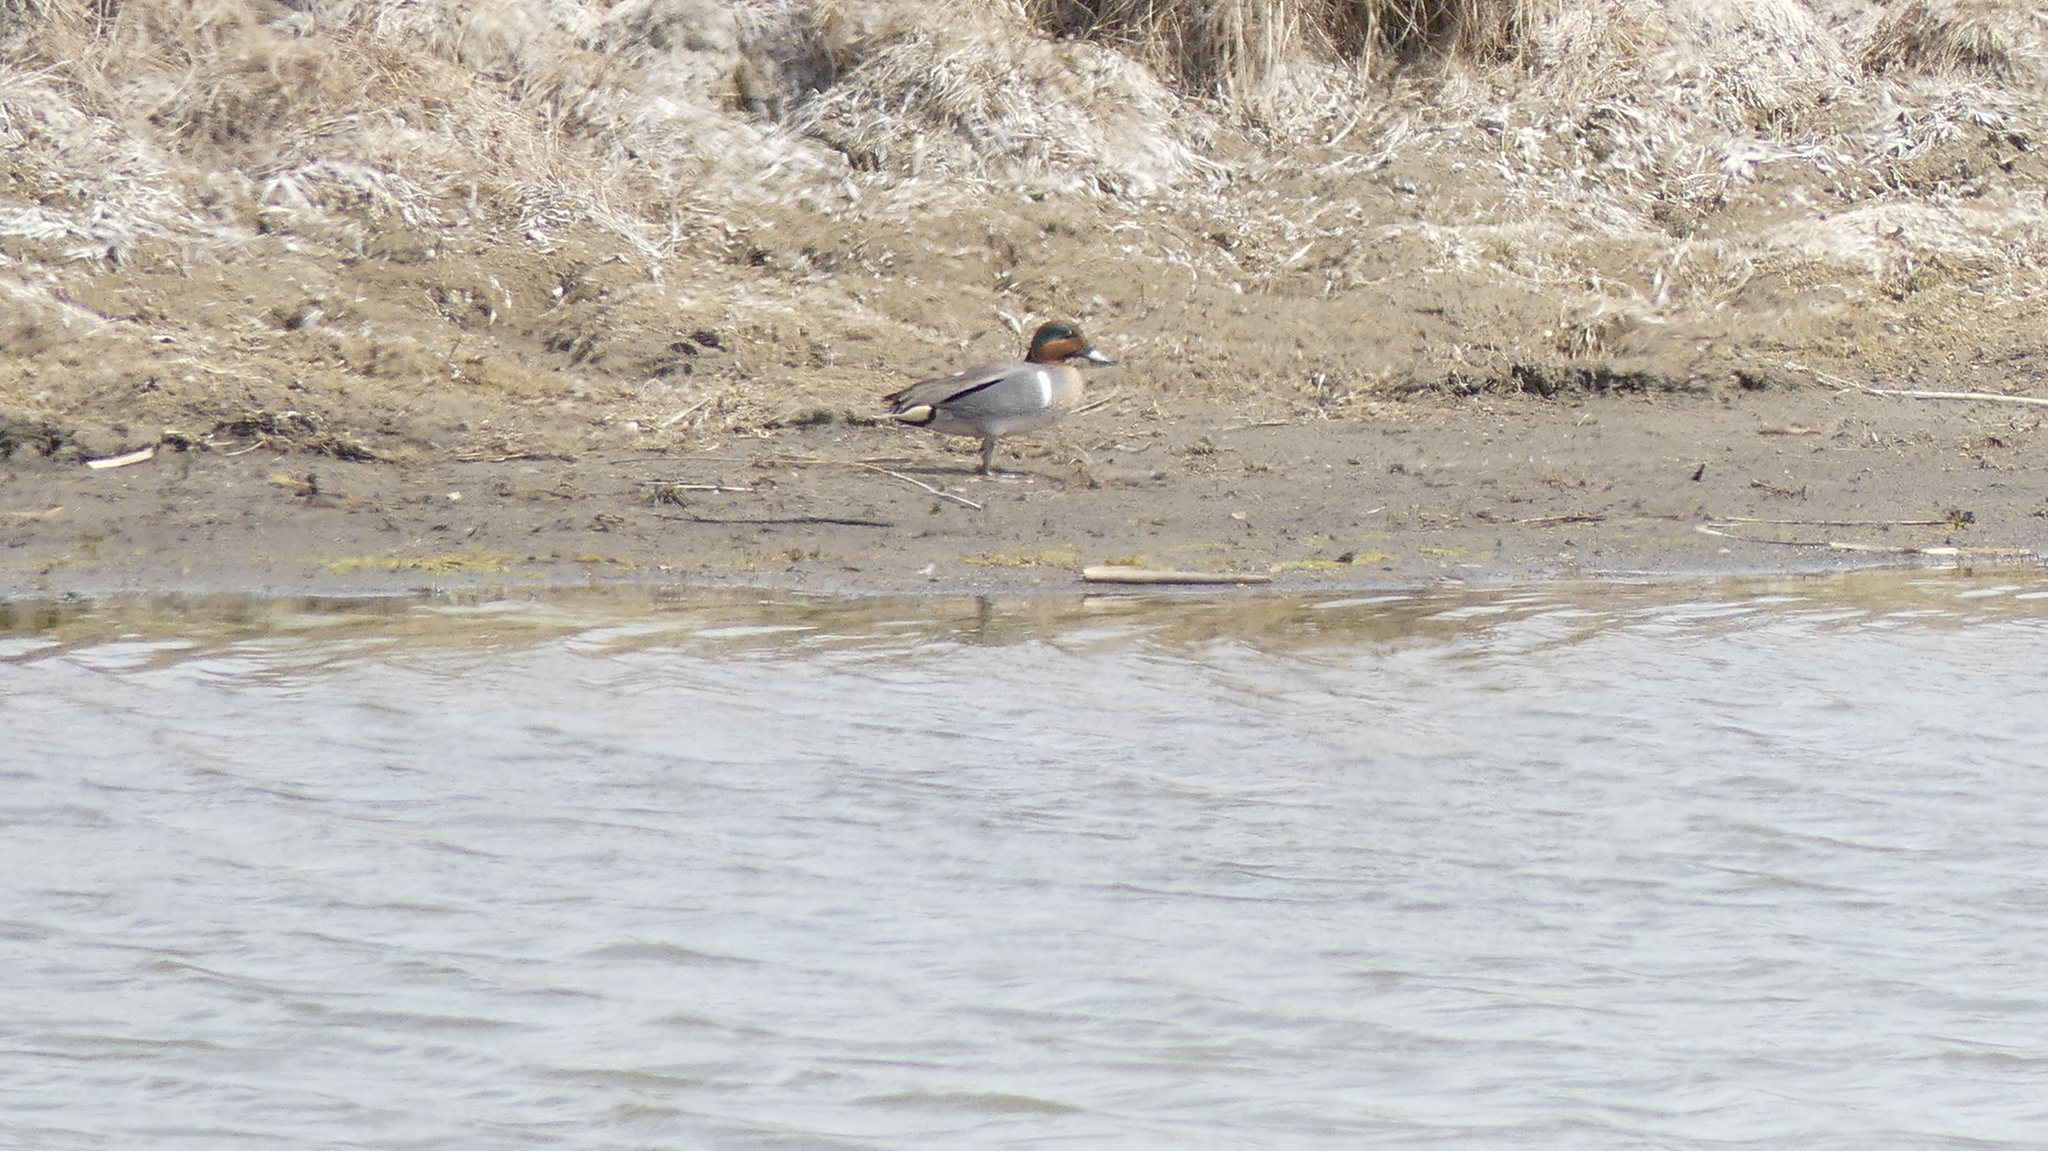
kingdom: Animalia
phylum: Chordata
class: Aves
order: Anseriformes
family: Anatidae
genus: Anas
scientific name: Anas crecca
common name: Eurasian teal
